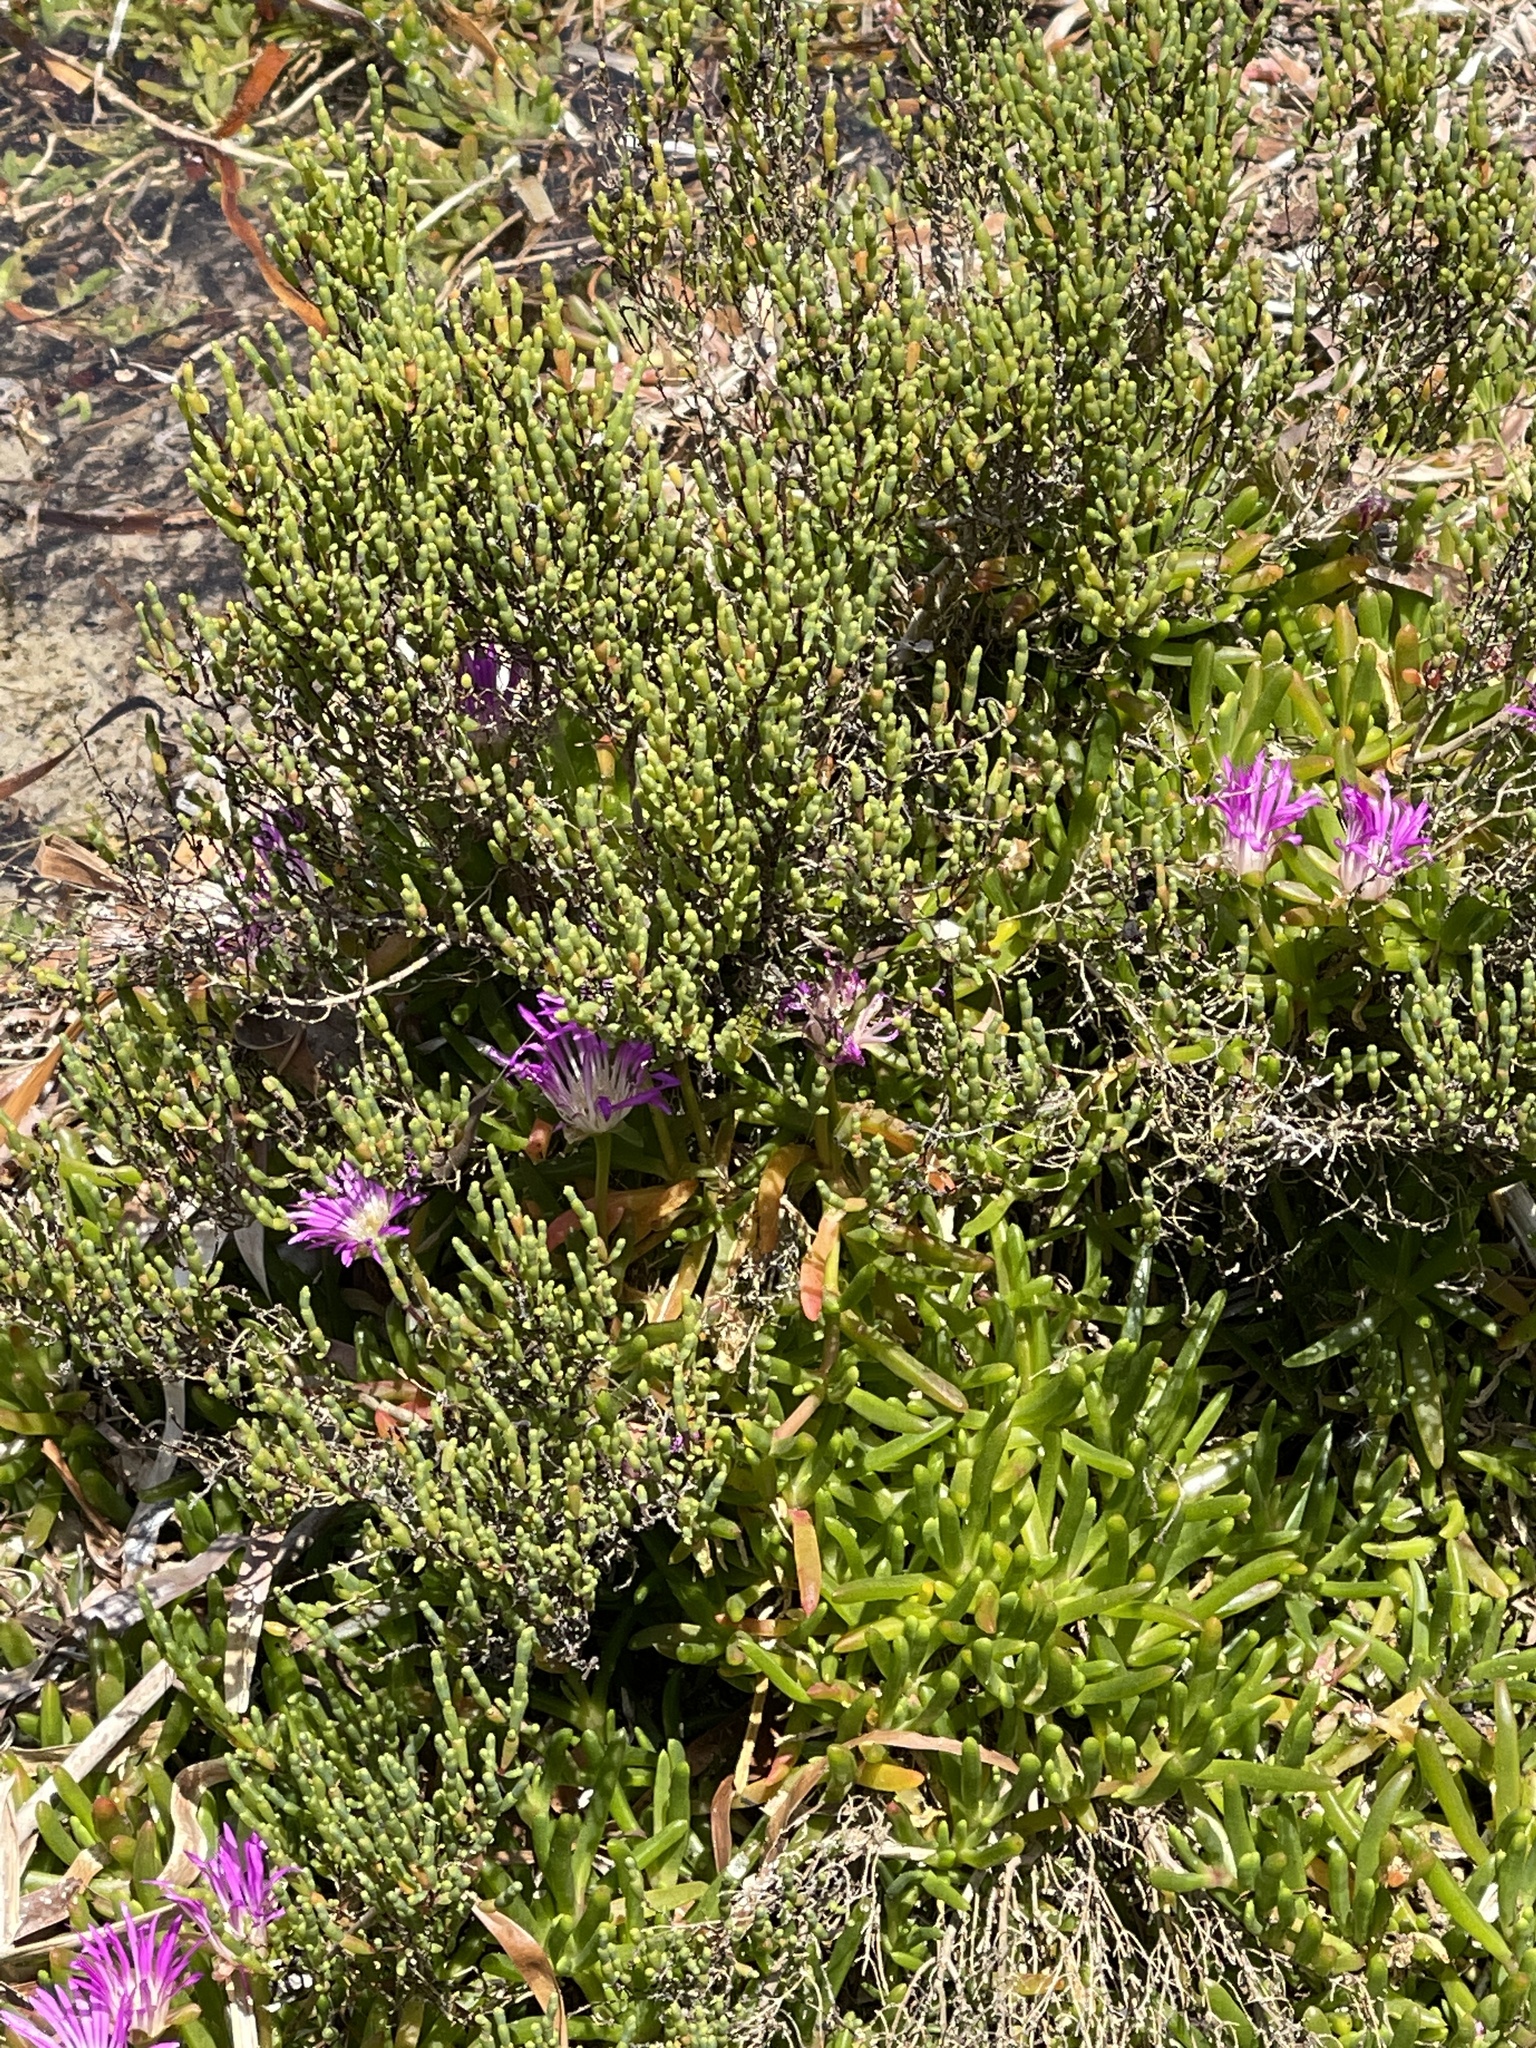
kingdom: Plantae
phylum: Tracheophyta
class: Magnoliopsida
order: Caryophyllales
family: Amaranthaceae
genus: Tecticornia
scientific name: Tecticornia arbuscula
